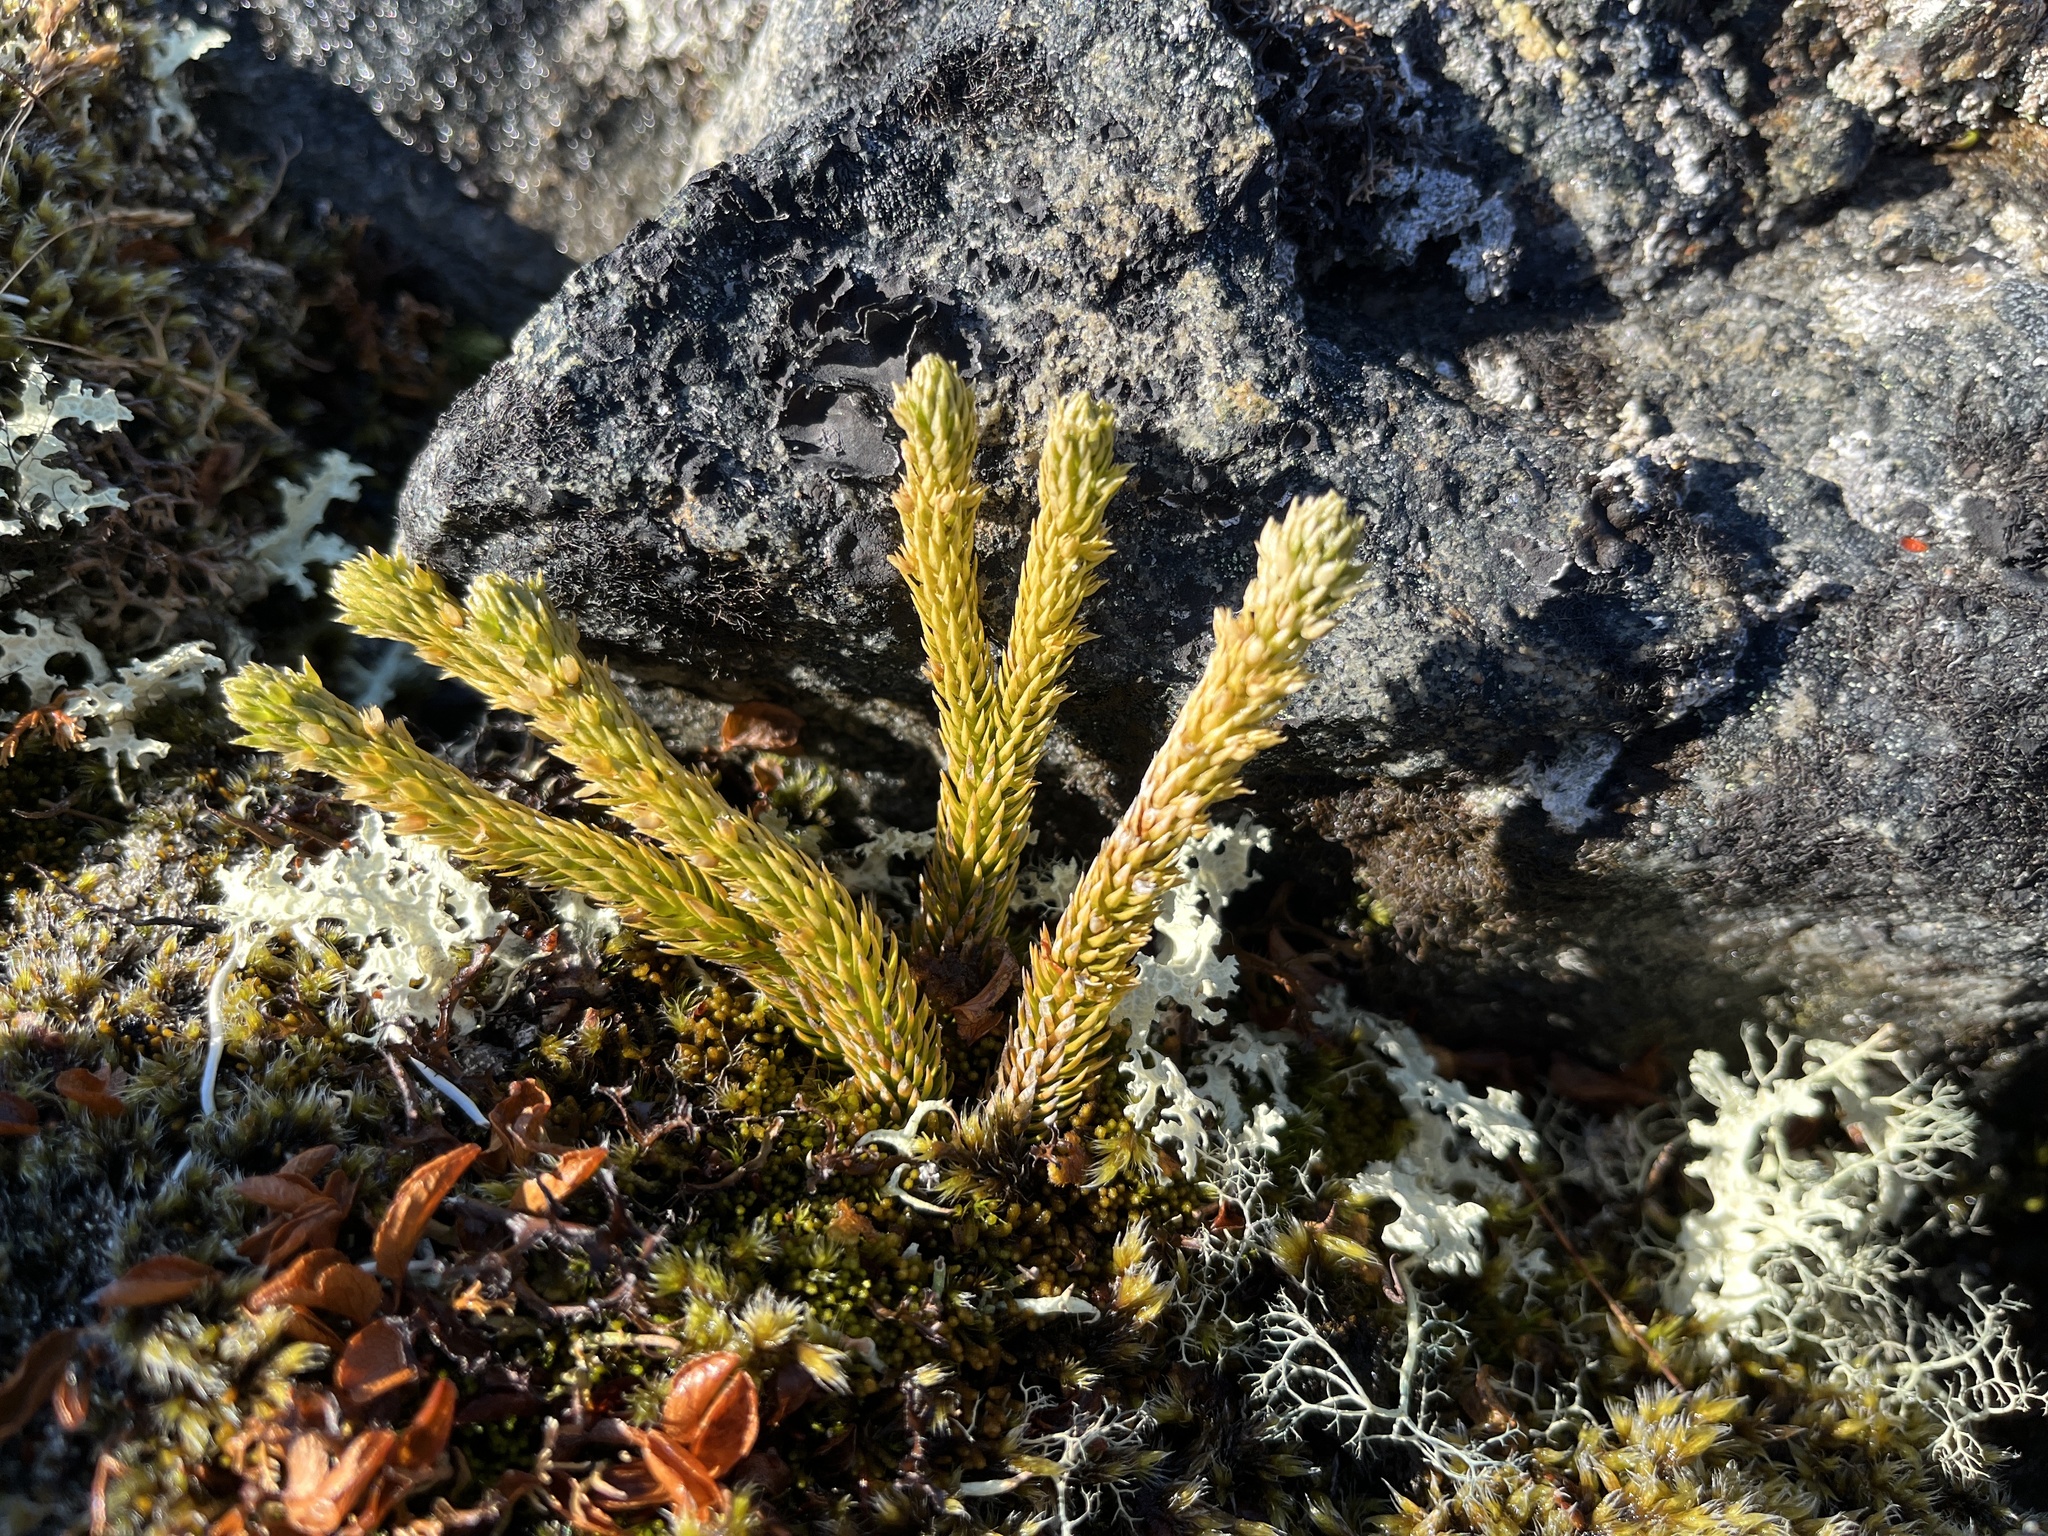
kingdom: Plantae
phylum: Tracheophyta
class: Lycopodiopsida
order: Lycopodiales
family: Lycopodiaceae
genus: Huperzia
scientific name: Huperzia selago
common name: Northern firmoss
